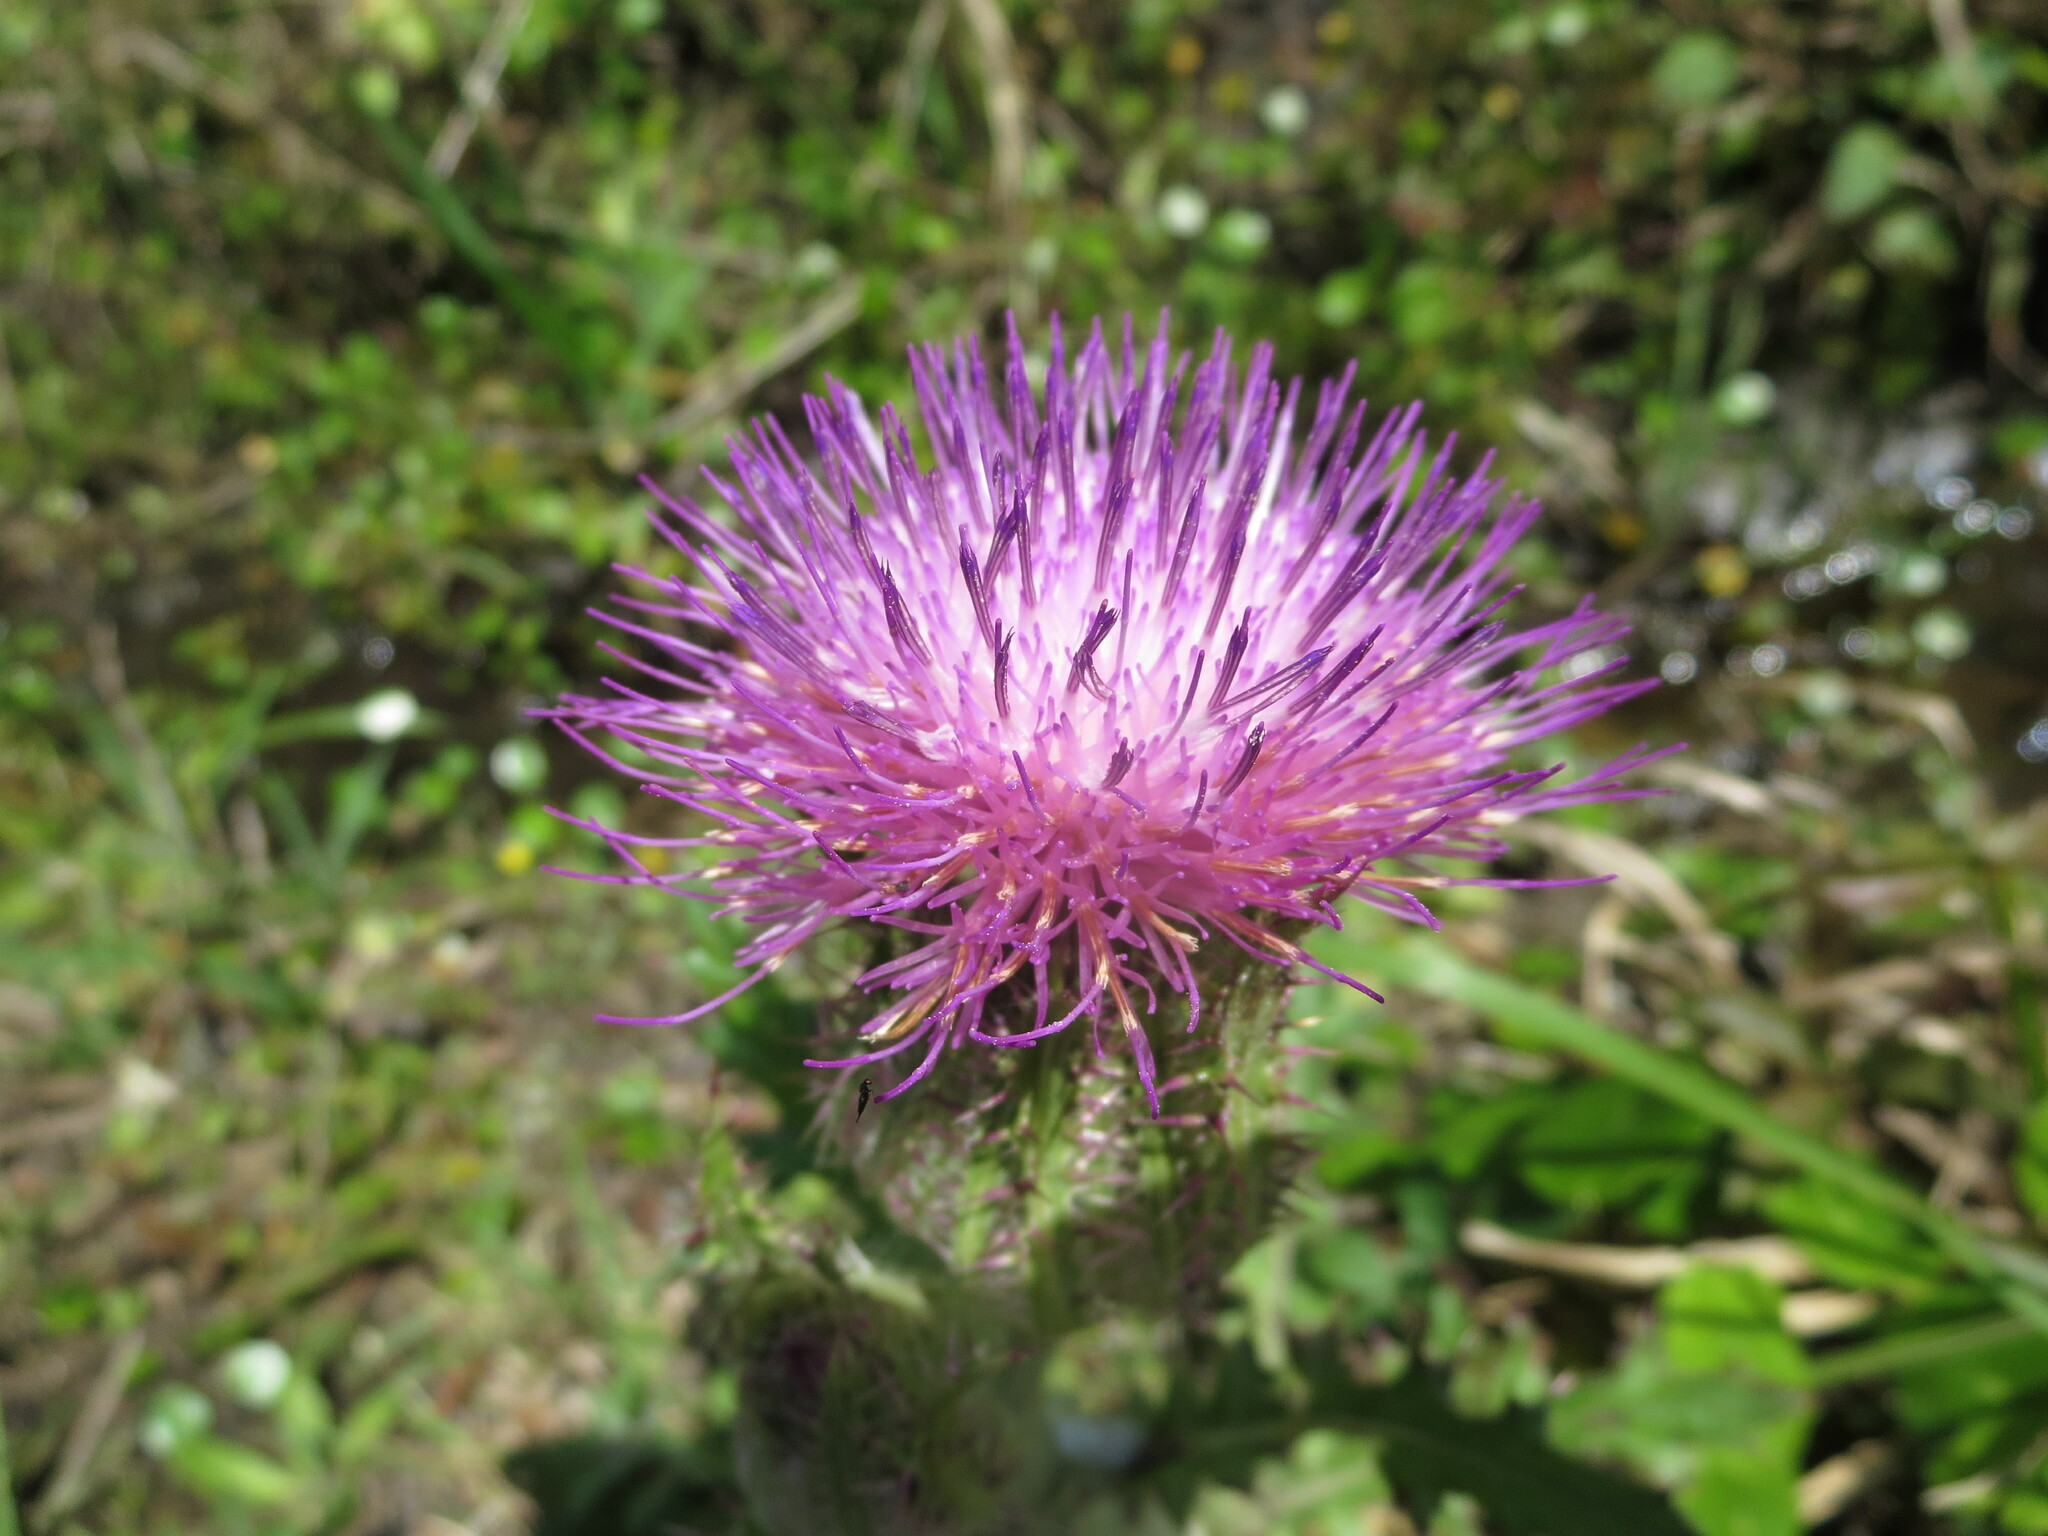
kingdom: Plantae
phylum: Tracheophyta
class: Magnoliopsida
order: Asterales
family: Asteraceae
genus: Cirsium
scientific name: Cirsium horridulum
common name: Bristly thistle
